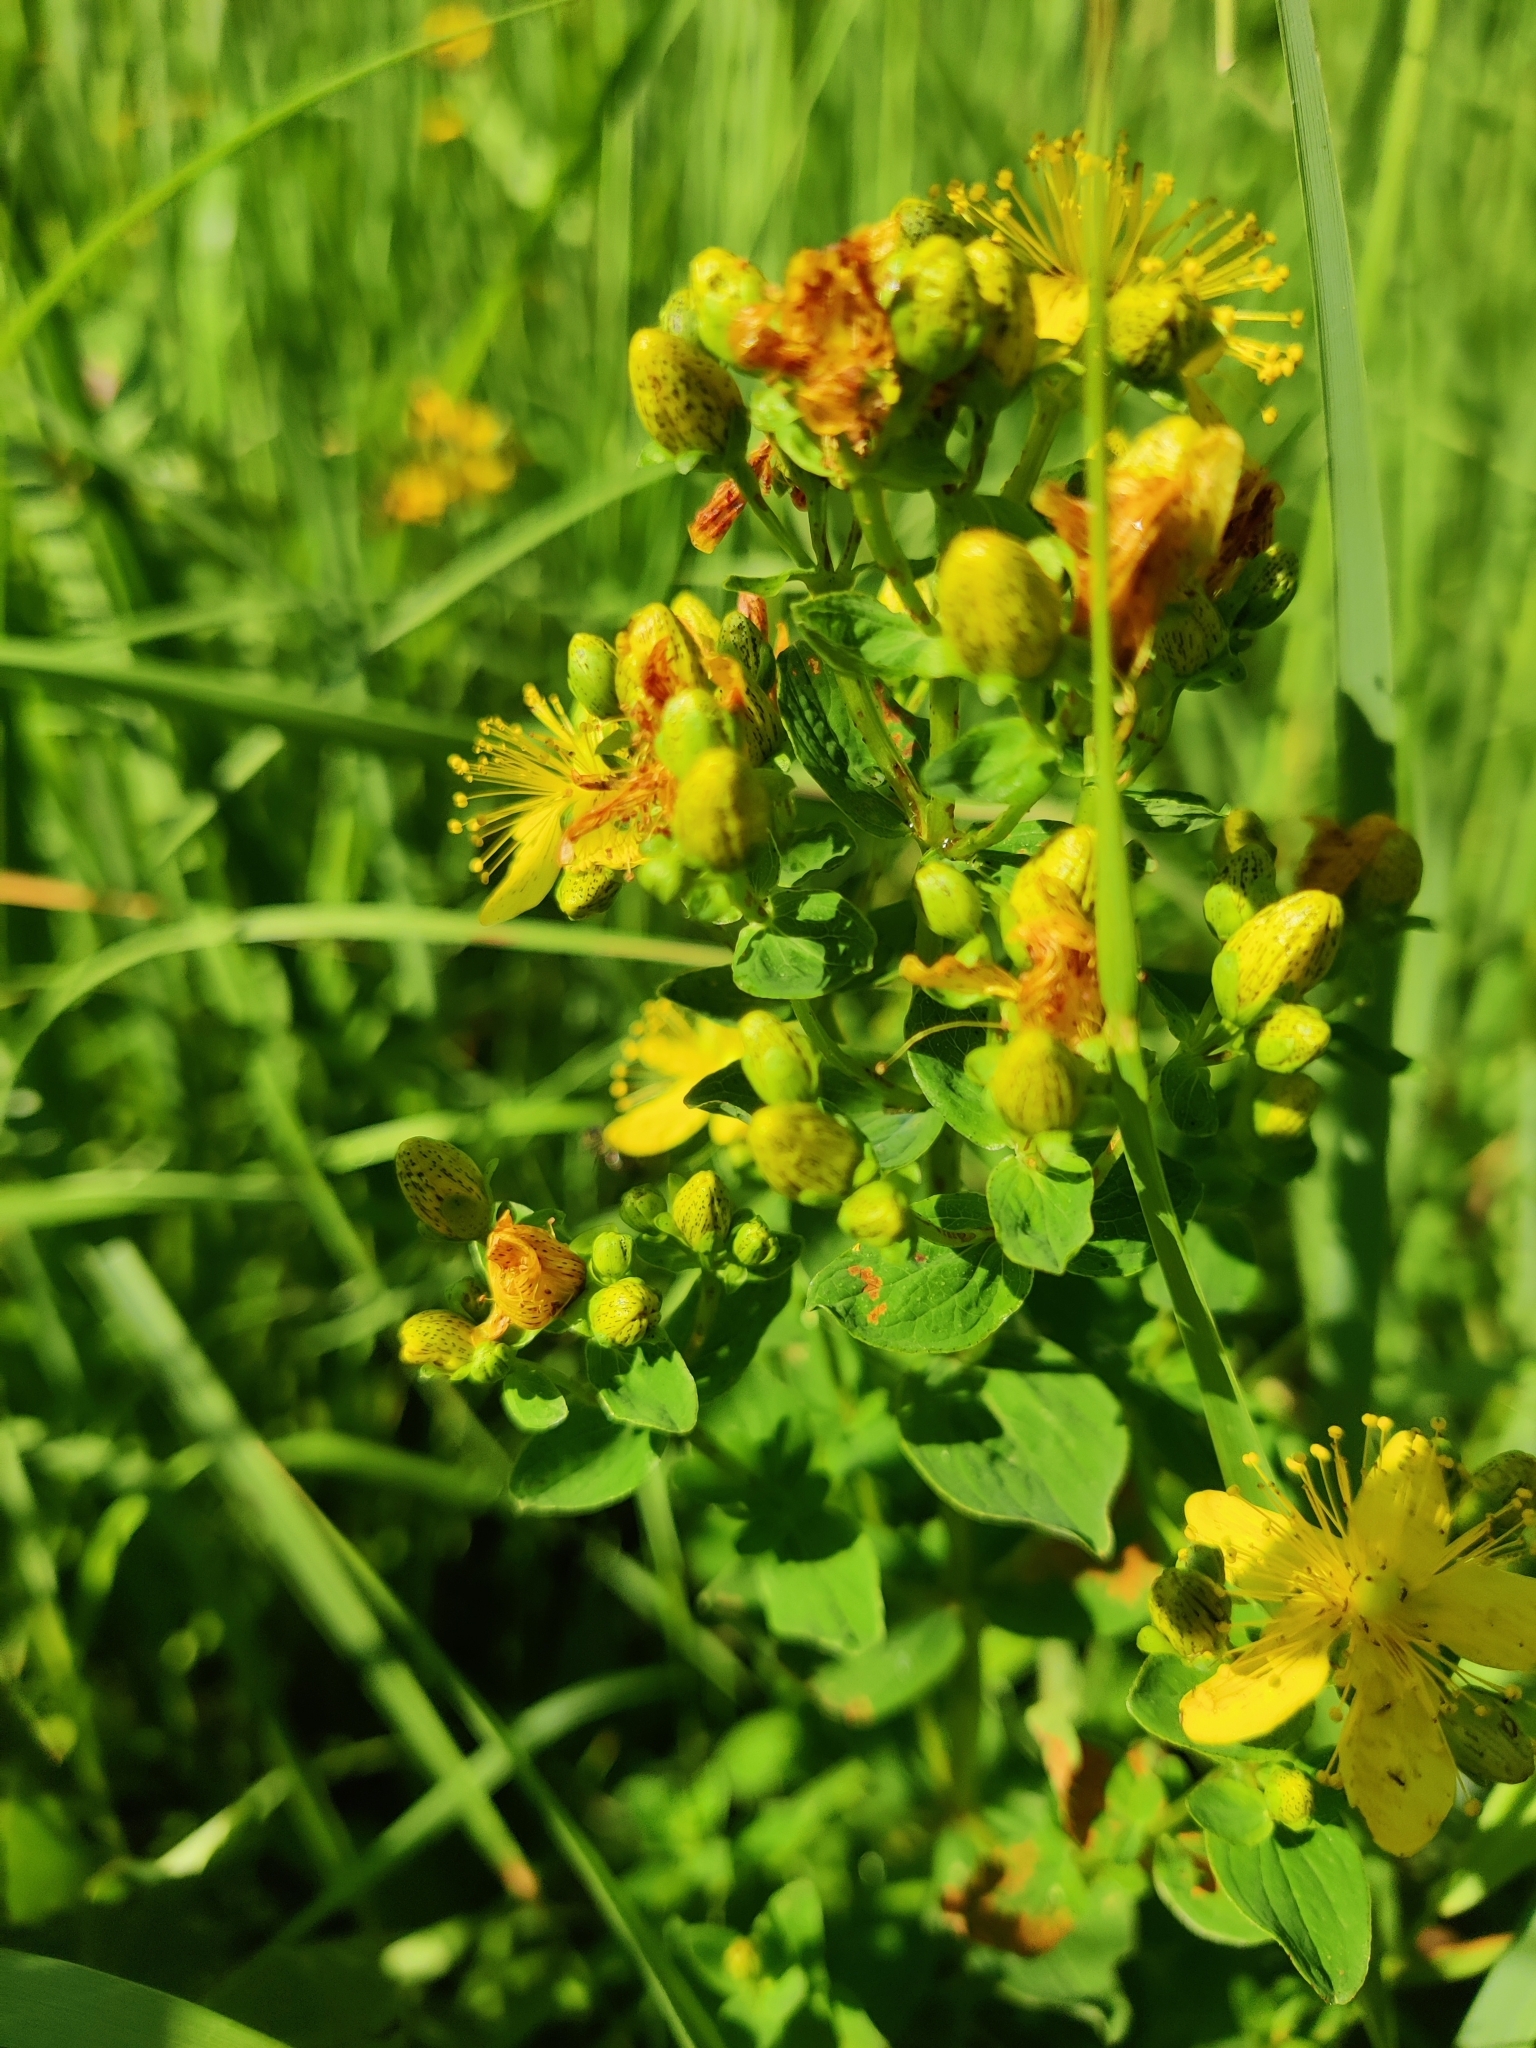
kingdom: Plantae
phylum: Tracheophyta
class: Magnoliopsida
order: Malpighiales
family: Hypericaceae
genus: Hypericum
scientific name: Hypericum maculatum
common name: Imperforate st. john's-wort
